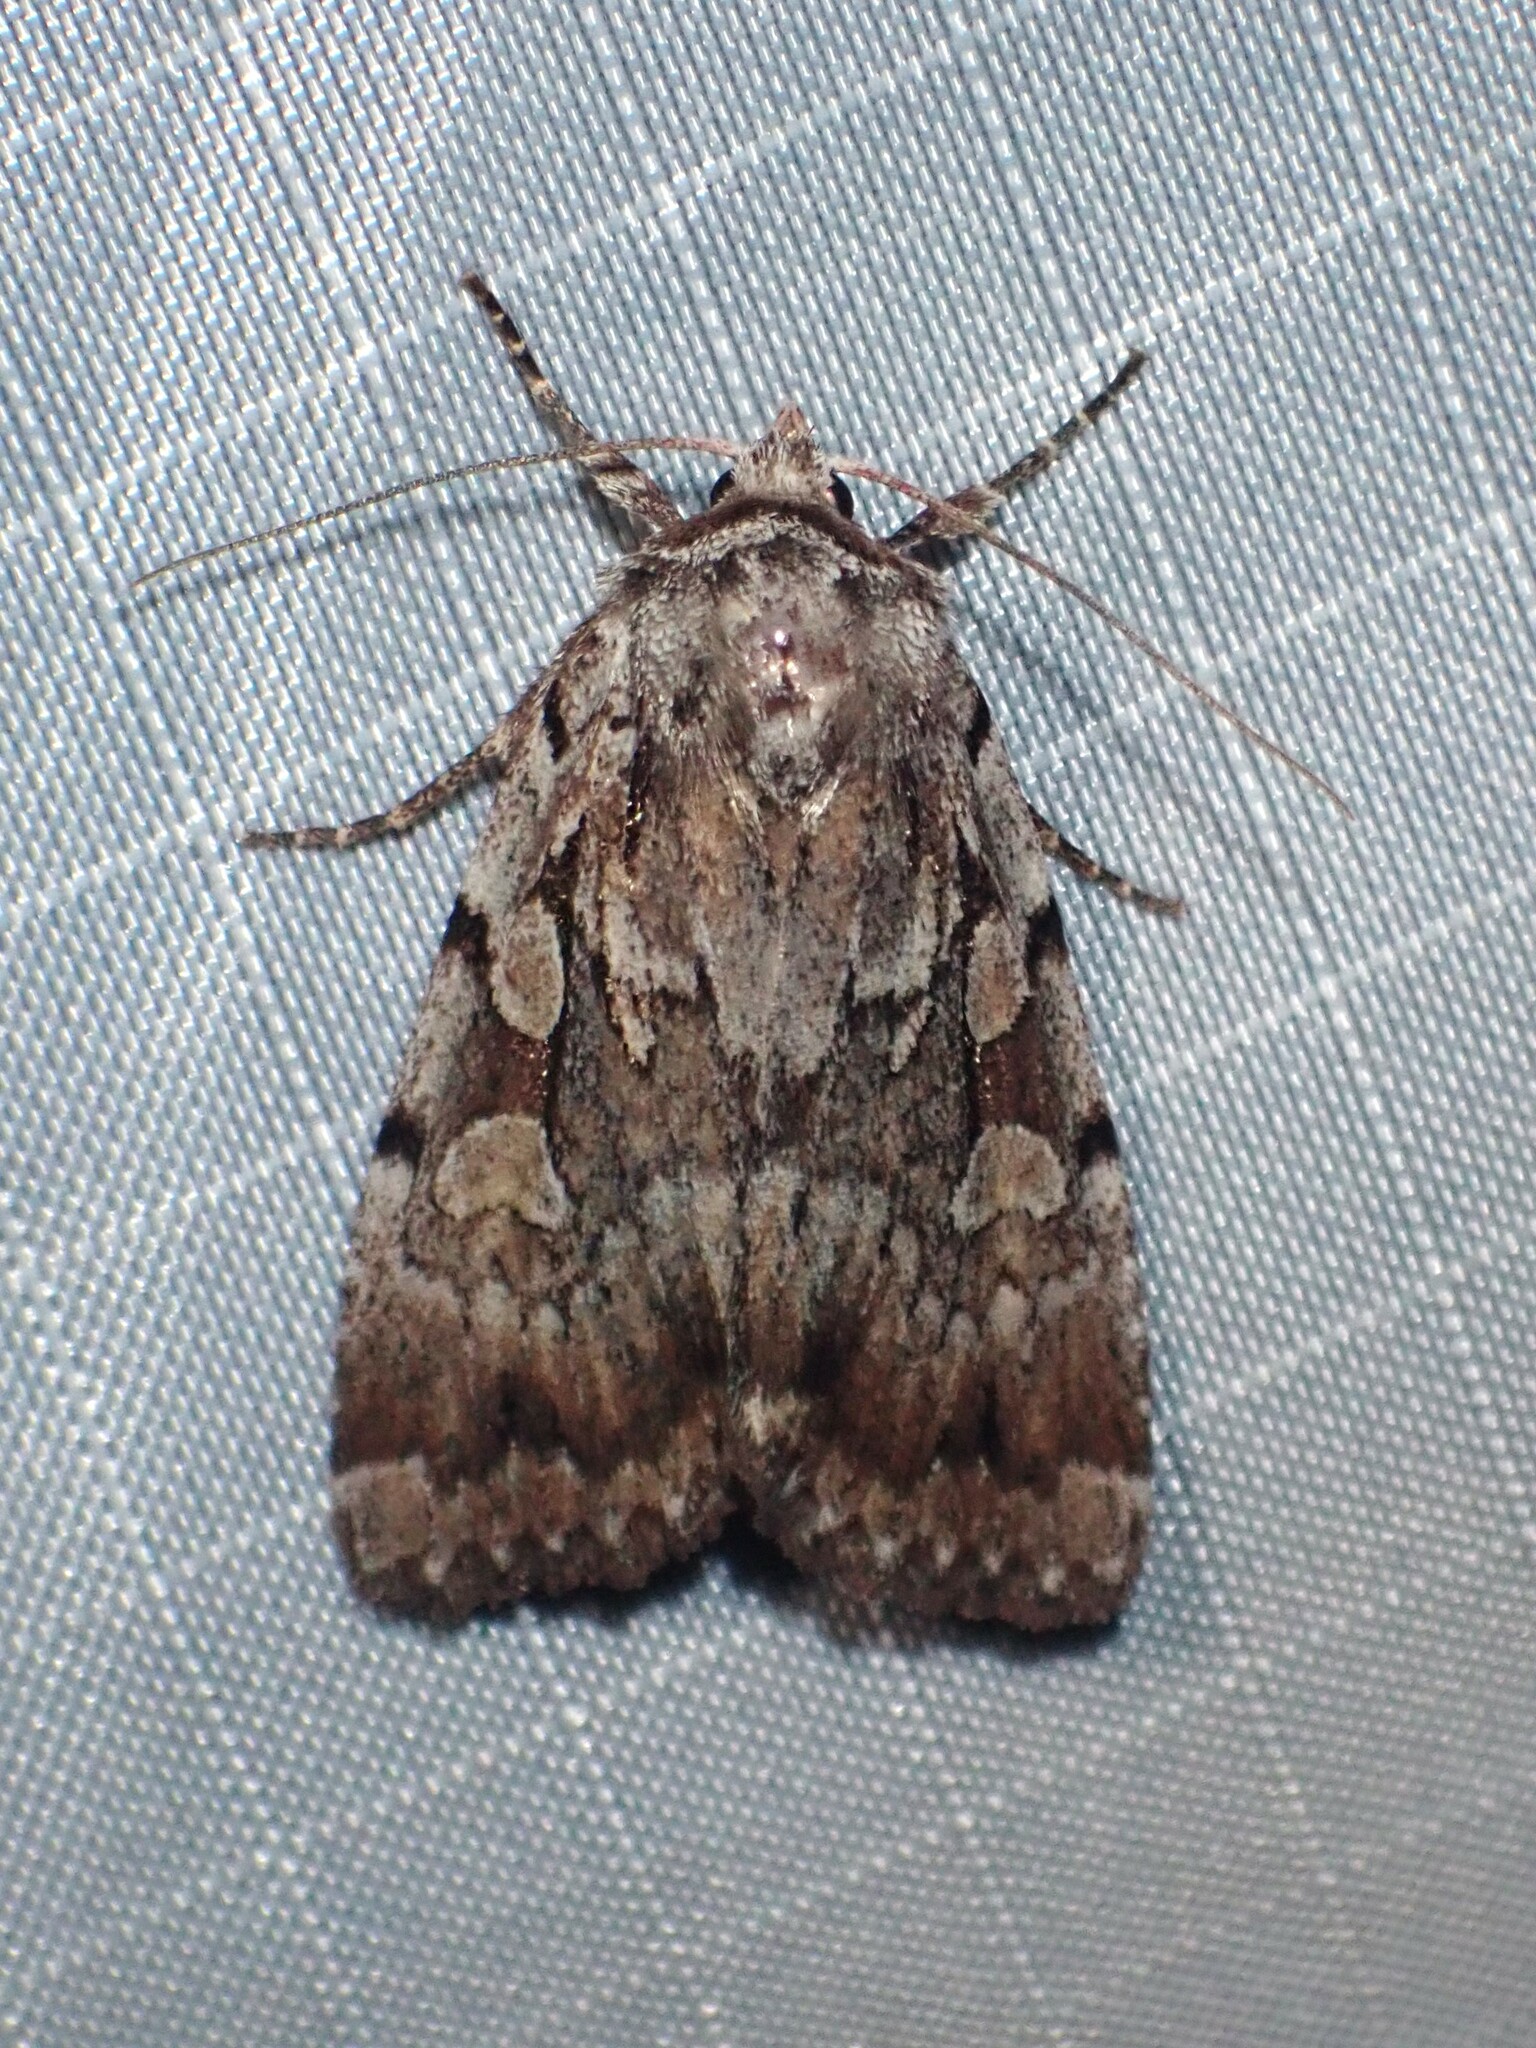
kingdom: Animalia
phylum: Arthropoda
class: Insecta
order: Lepidoptera
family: Noctuidae
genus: Xestia
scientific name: Xestia badicollis
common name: Northern variable dart
